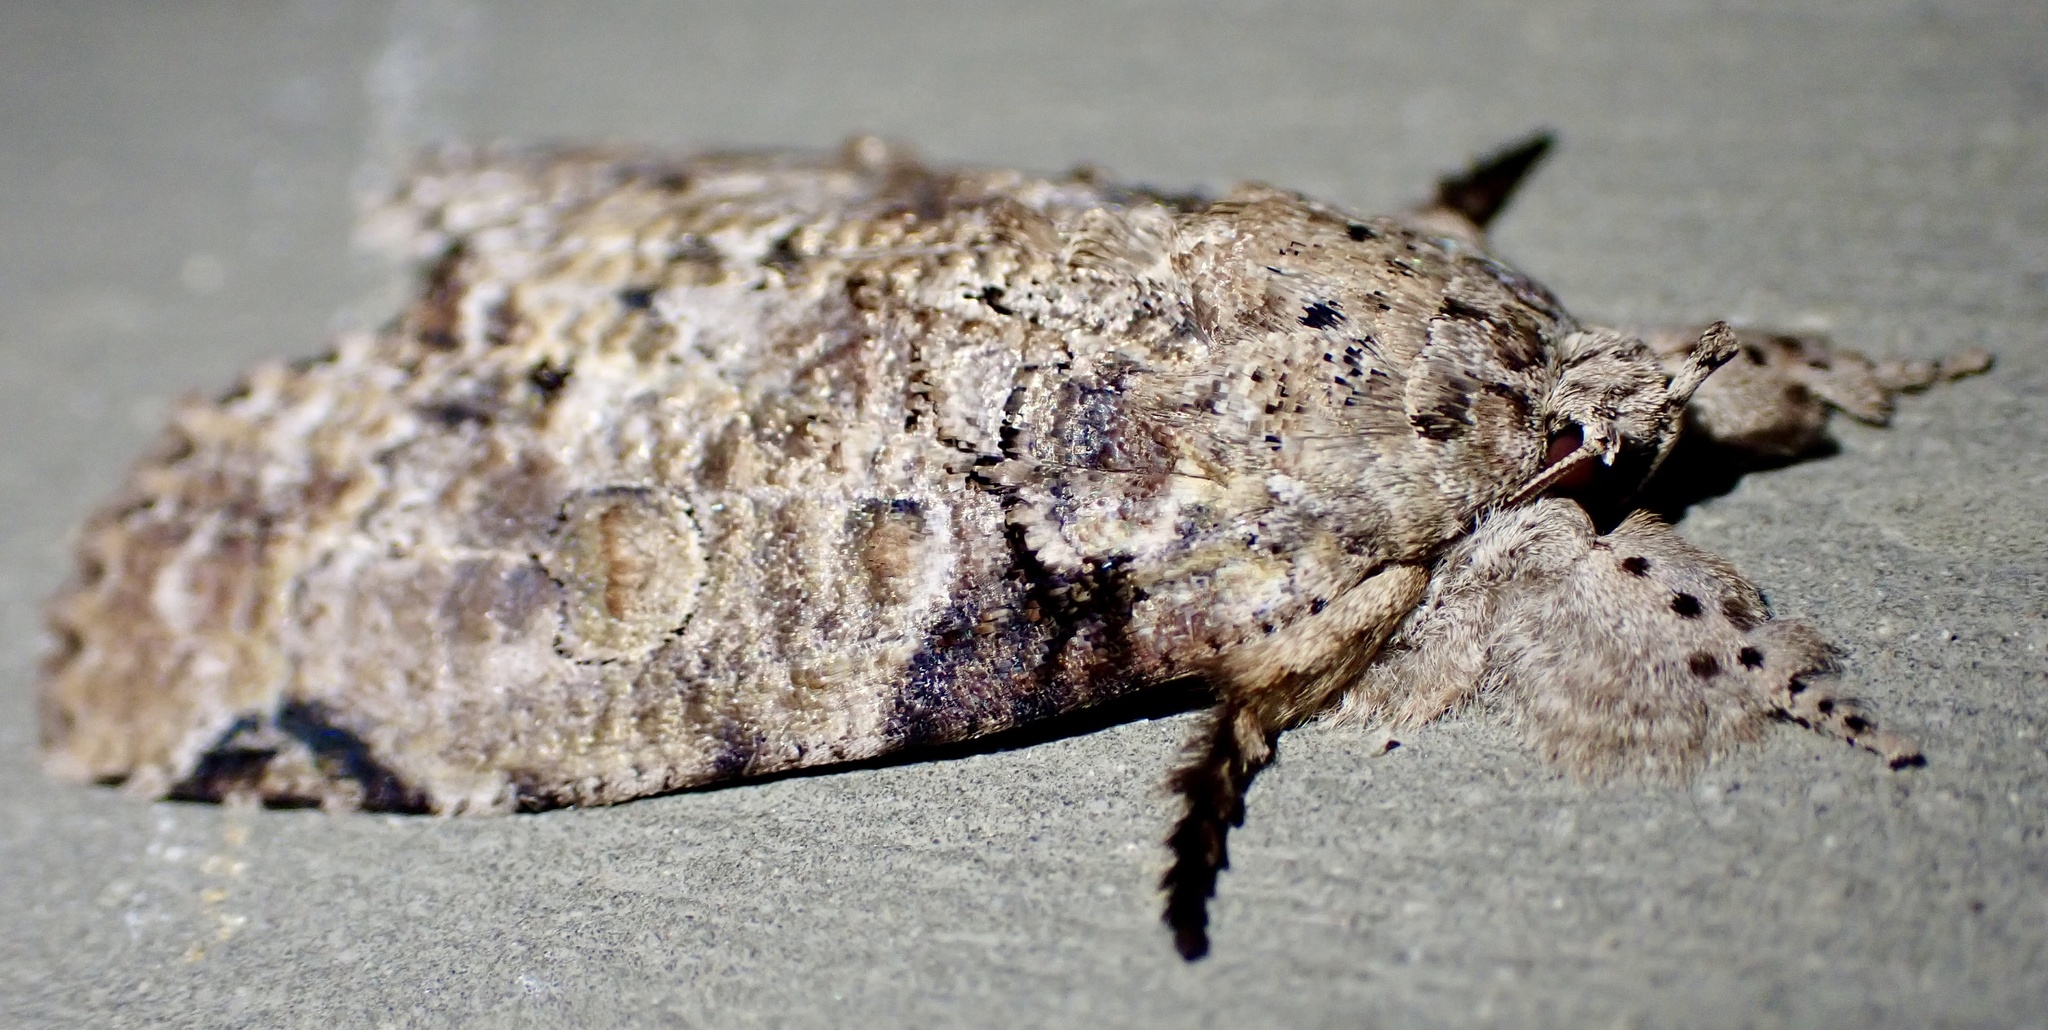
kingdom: Animalia
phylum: Arthropoda
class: Insecta
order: Lepidoptera
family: Nolidae
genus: Gadirtha
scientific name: Gadirtha impingens
